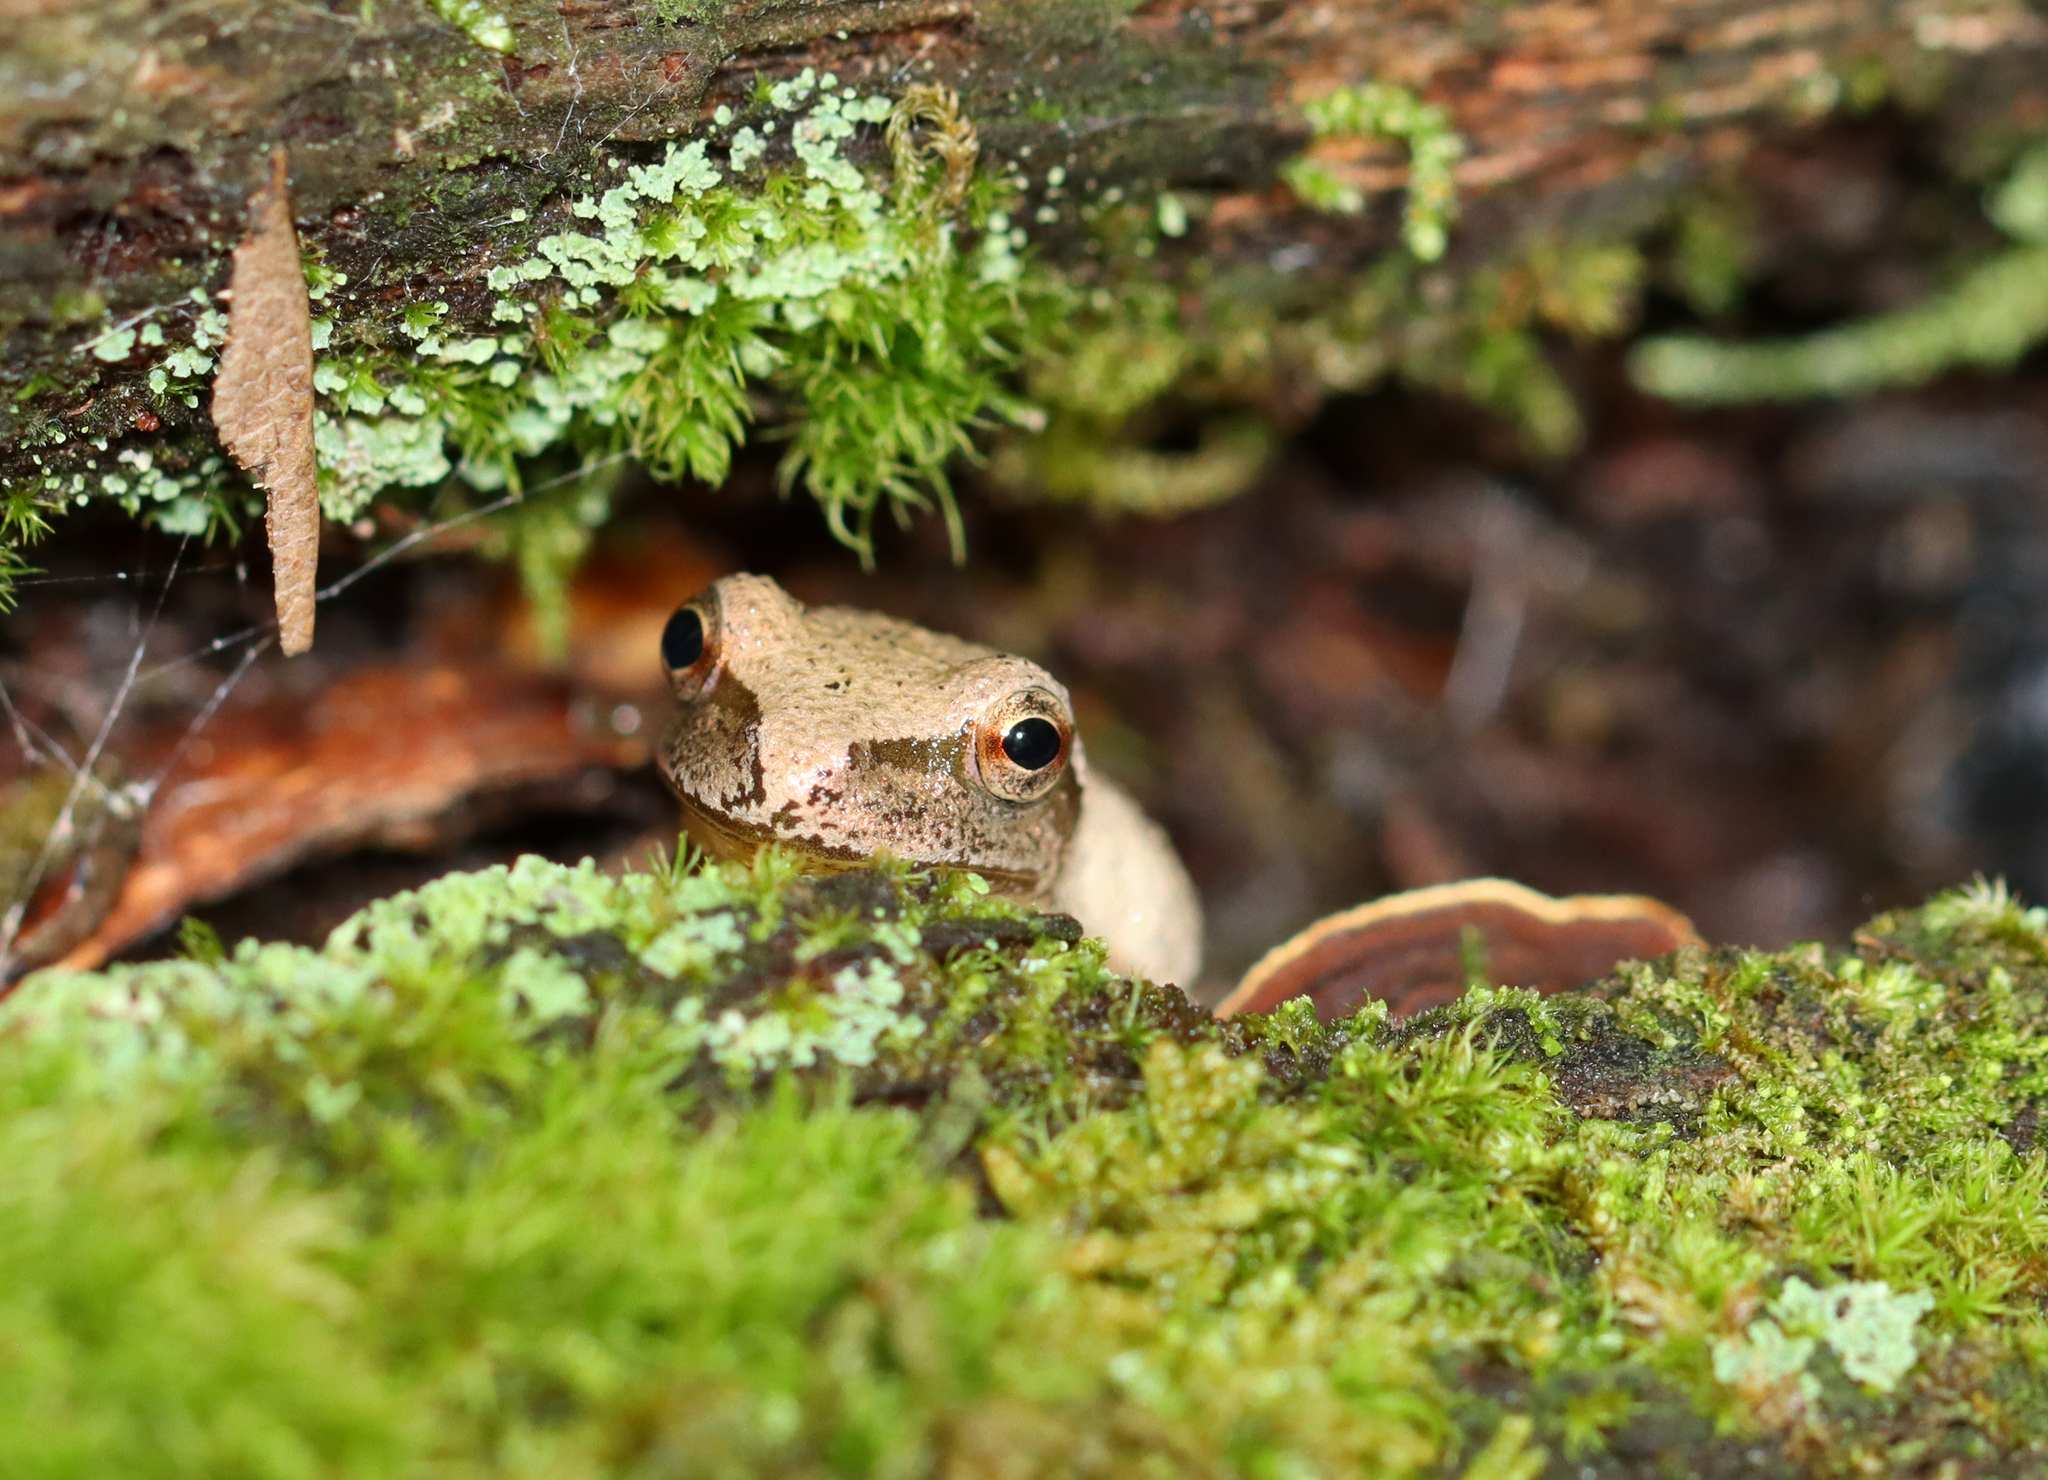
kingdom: Animalia
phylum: Chordata
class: Amphibia
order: Anura
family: Hylidae
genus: Pseudacris
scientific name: Pseudacris crucifer
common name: Spring peeper
